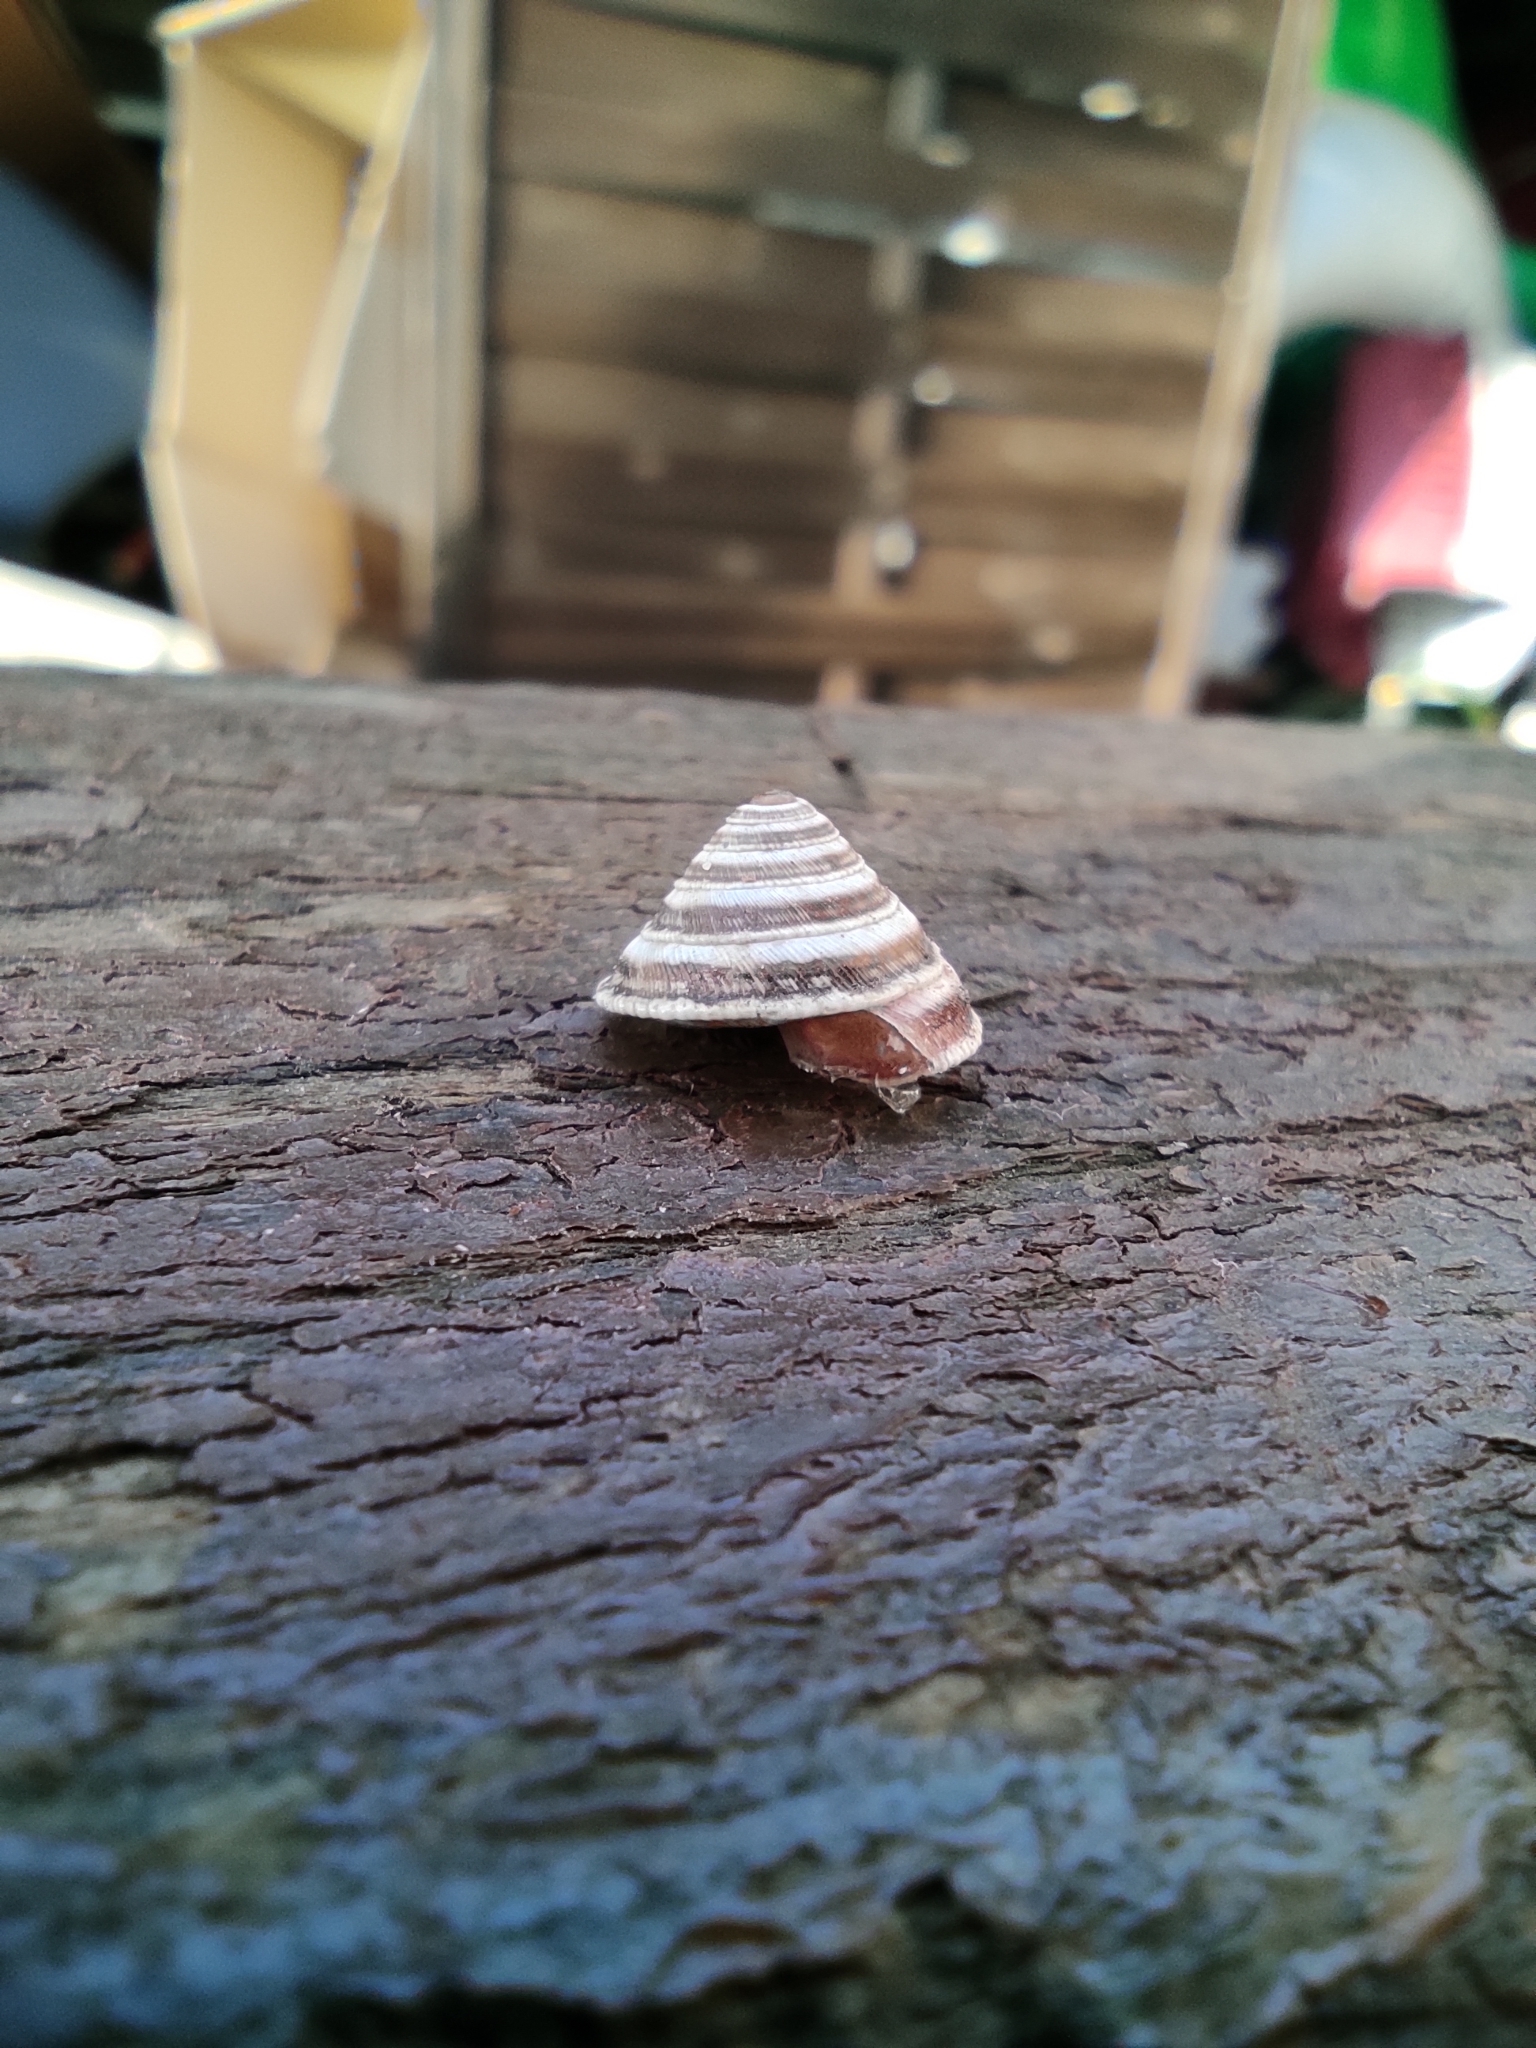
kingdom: Animalia
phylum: Mollusca
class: Gastropoda
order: Stylommatophora
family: Geomitridae
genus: Trochoidea
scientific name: Trochoidea elegans
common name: Elegant helicellid
